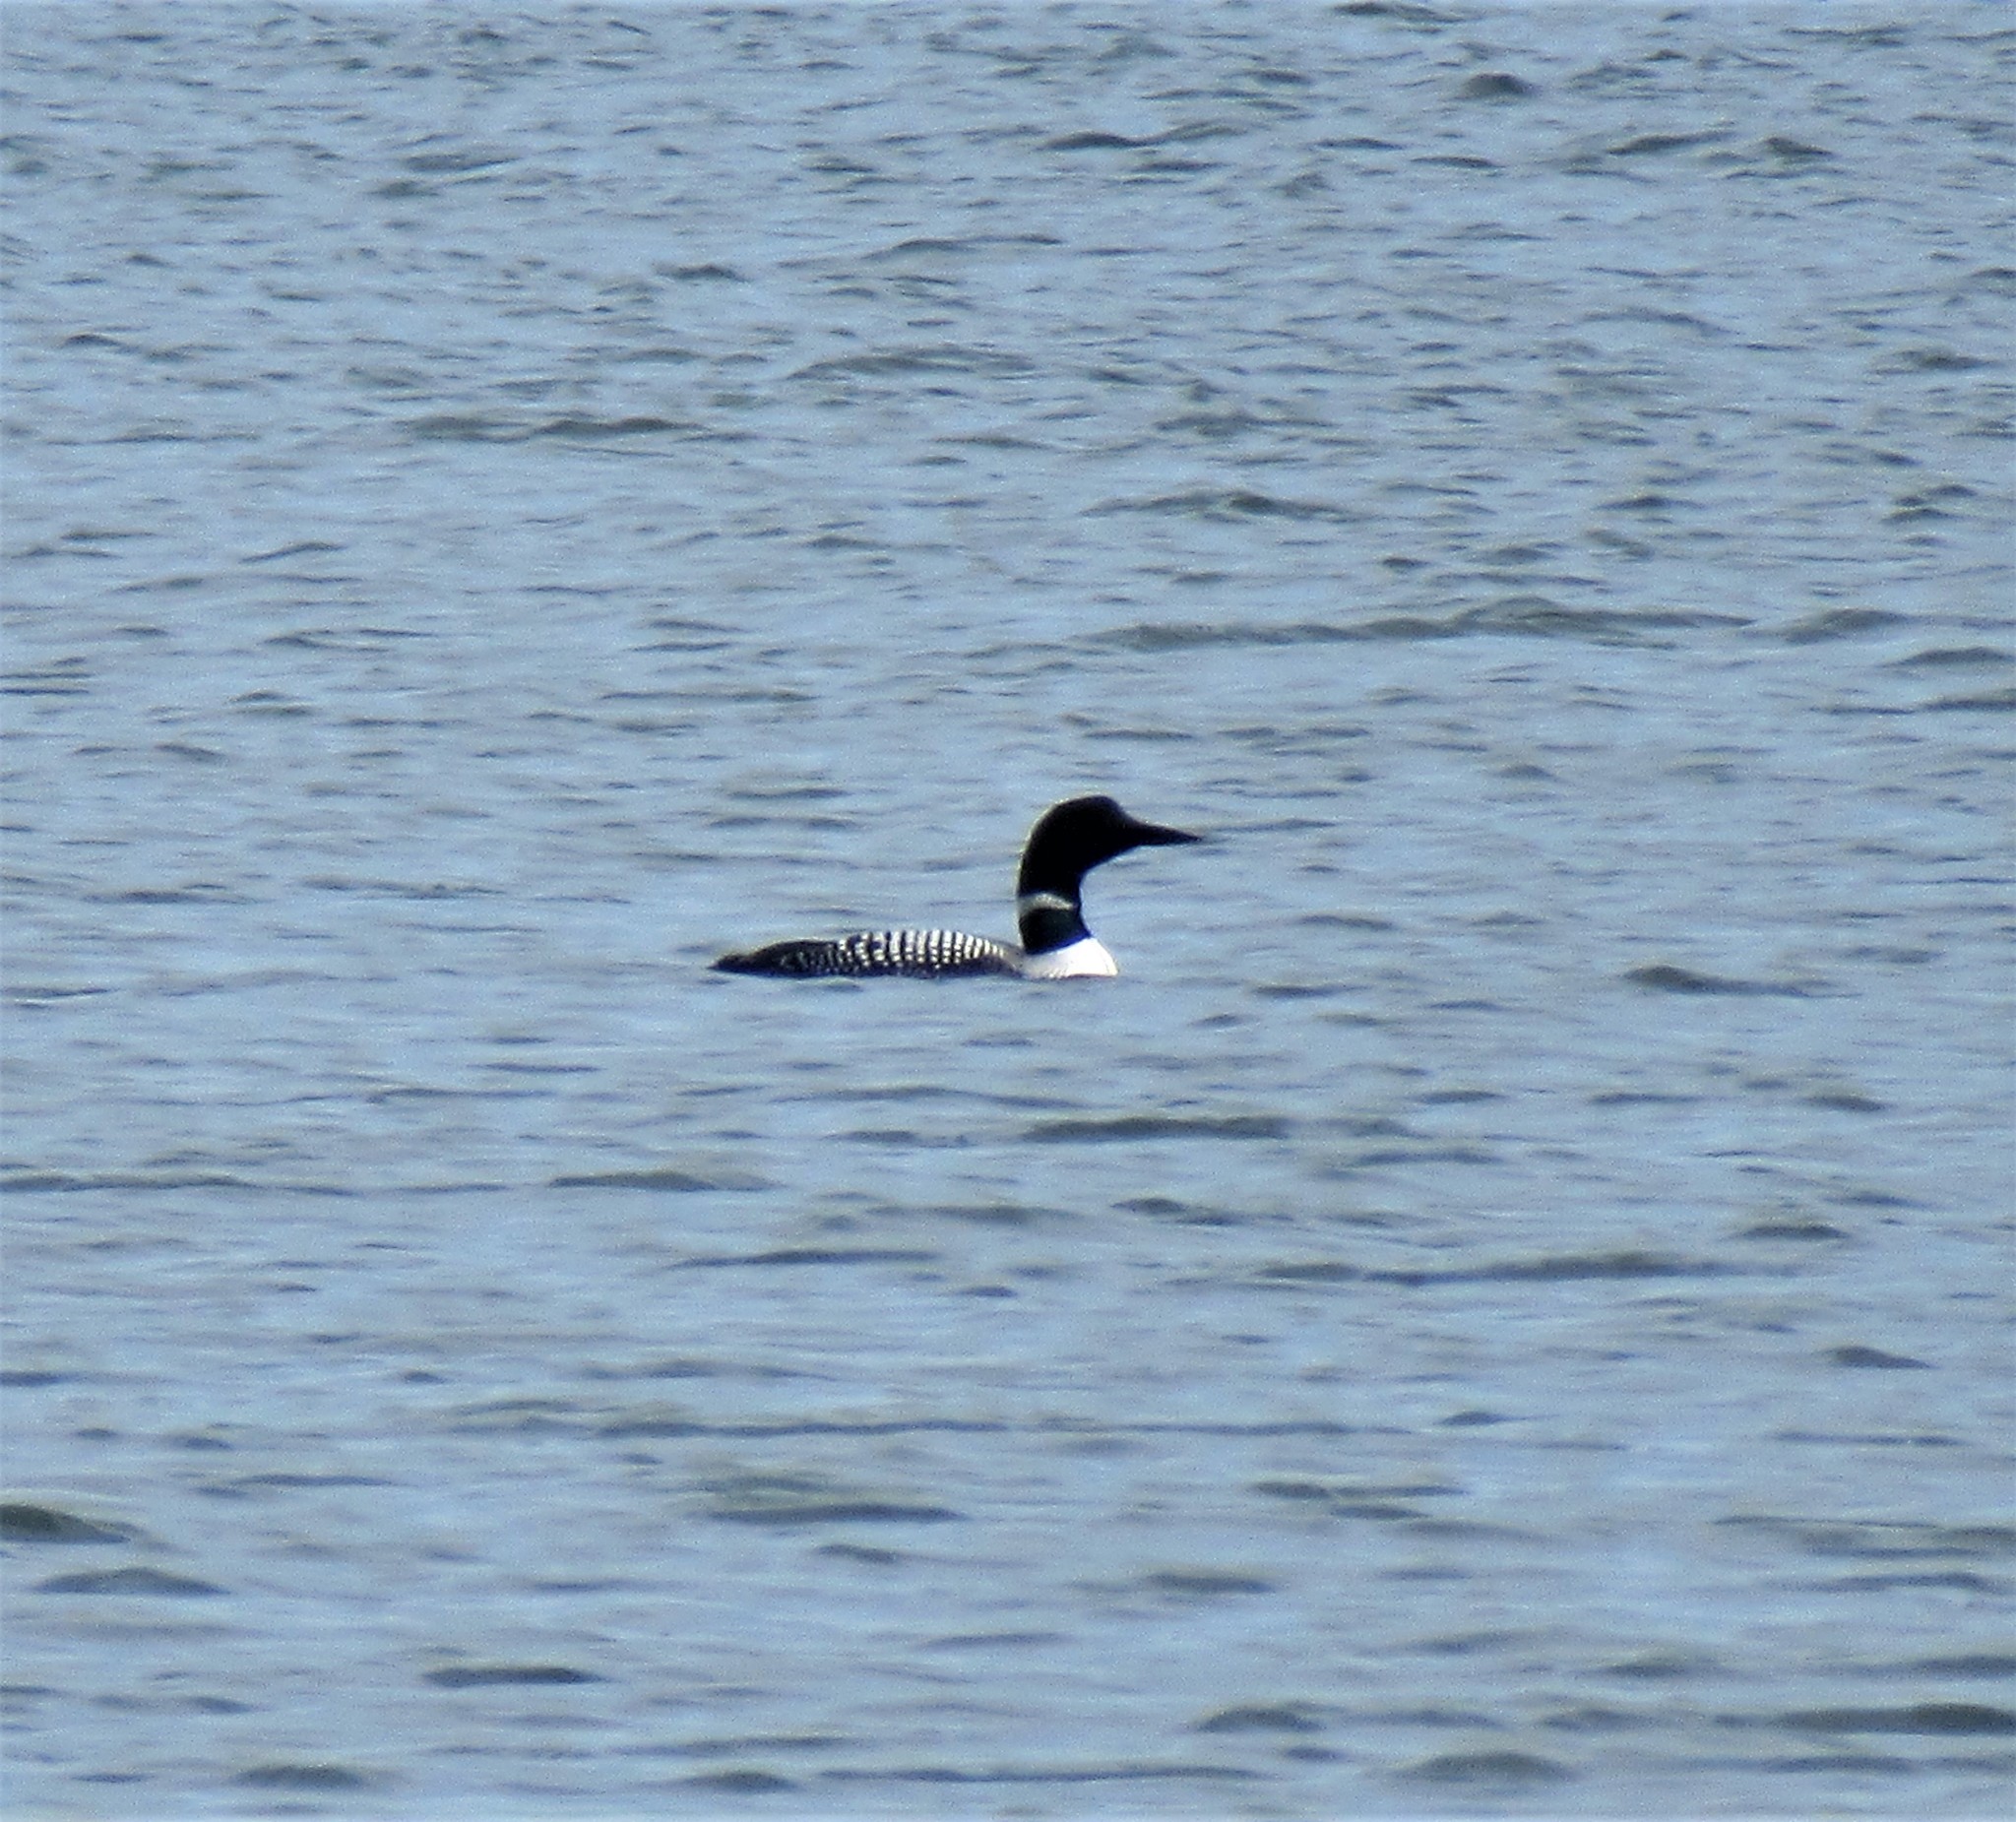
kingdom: Animalia
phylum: Chordata
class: Aves
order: Gaviiformes
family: Gaviidae
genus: Gavia
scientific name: Gavia immer
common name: Common loon
